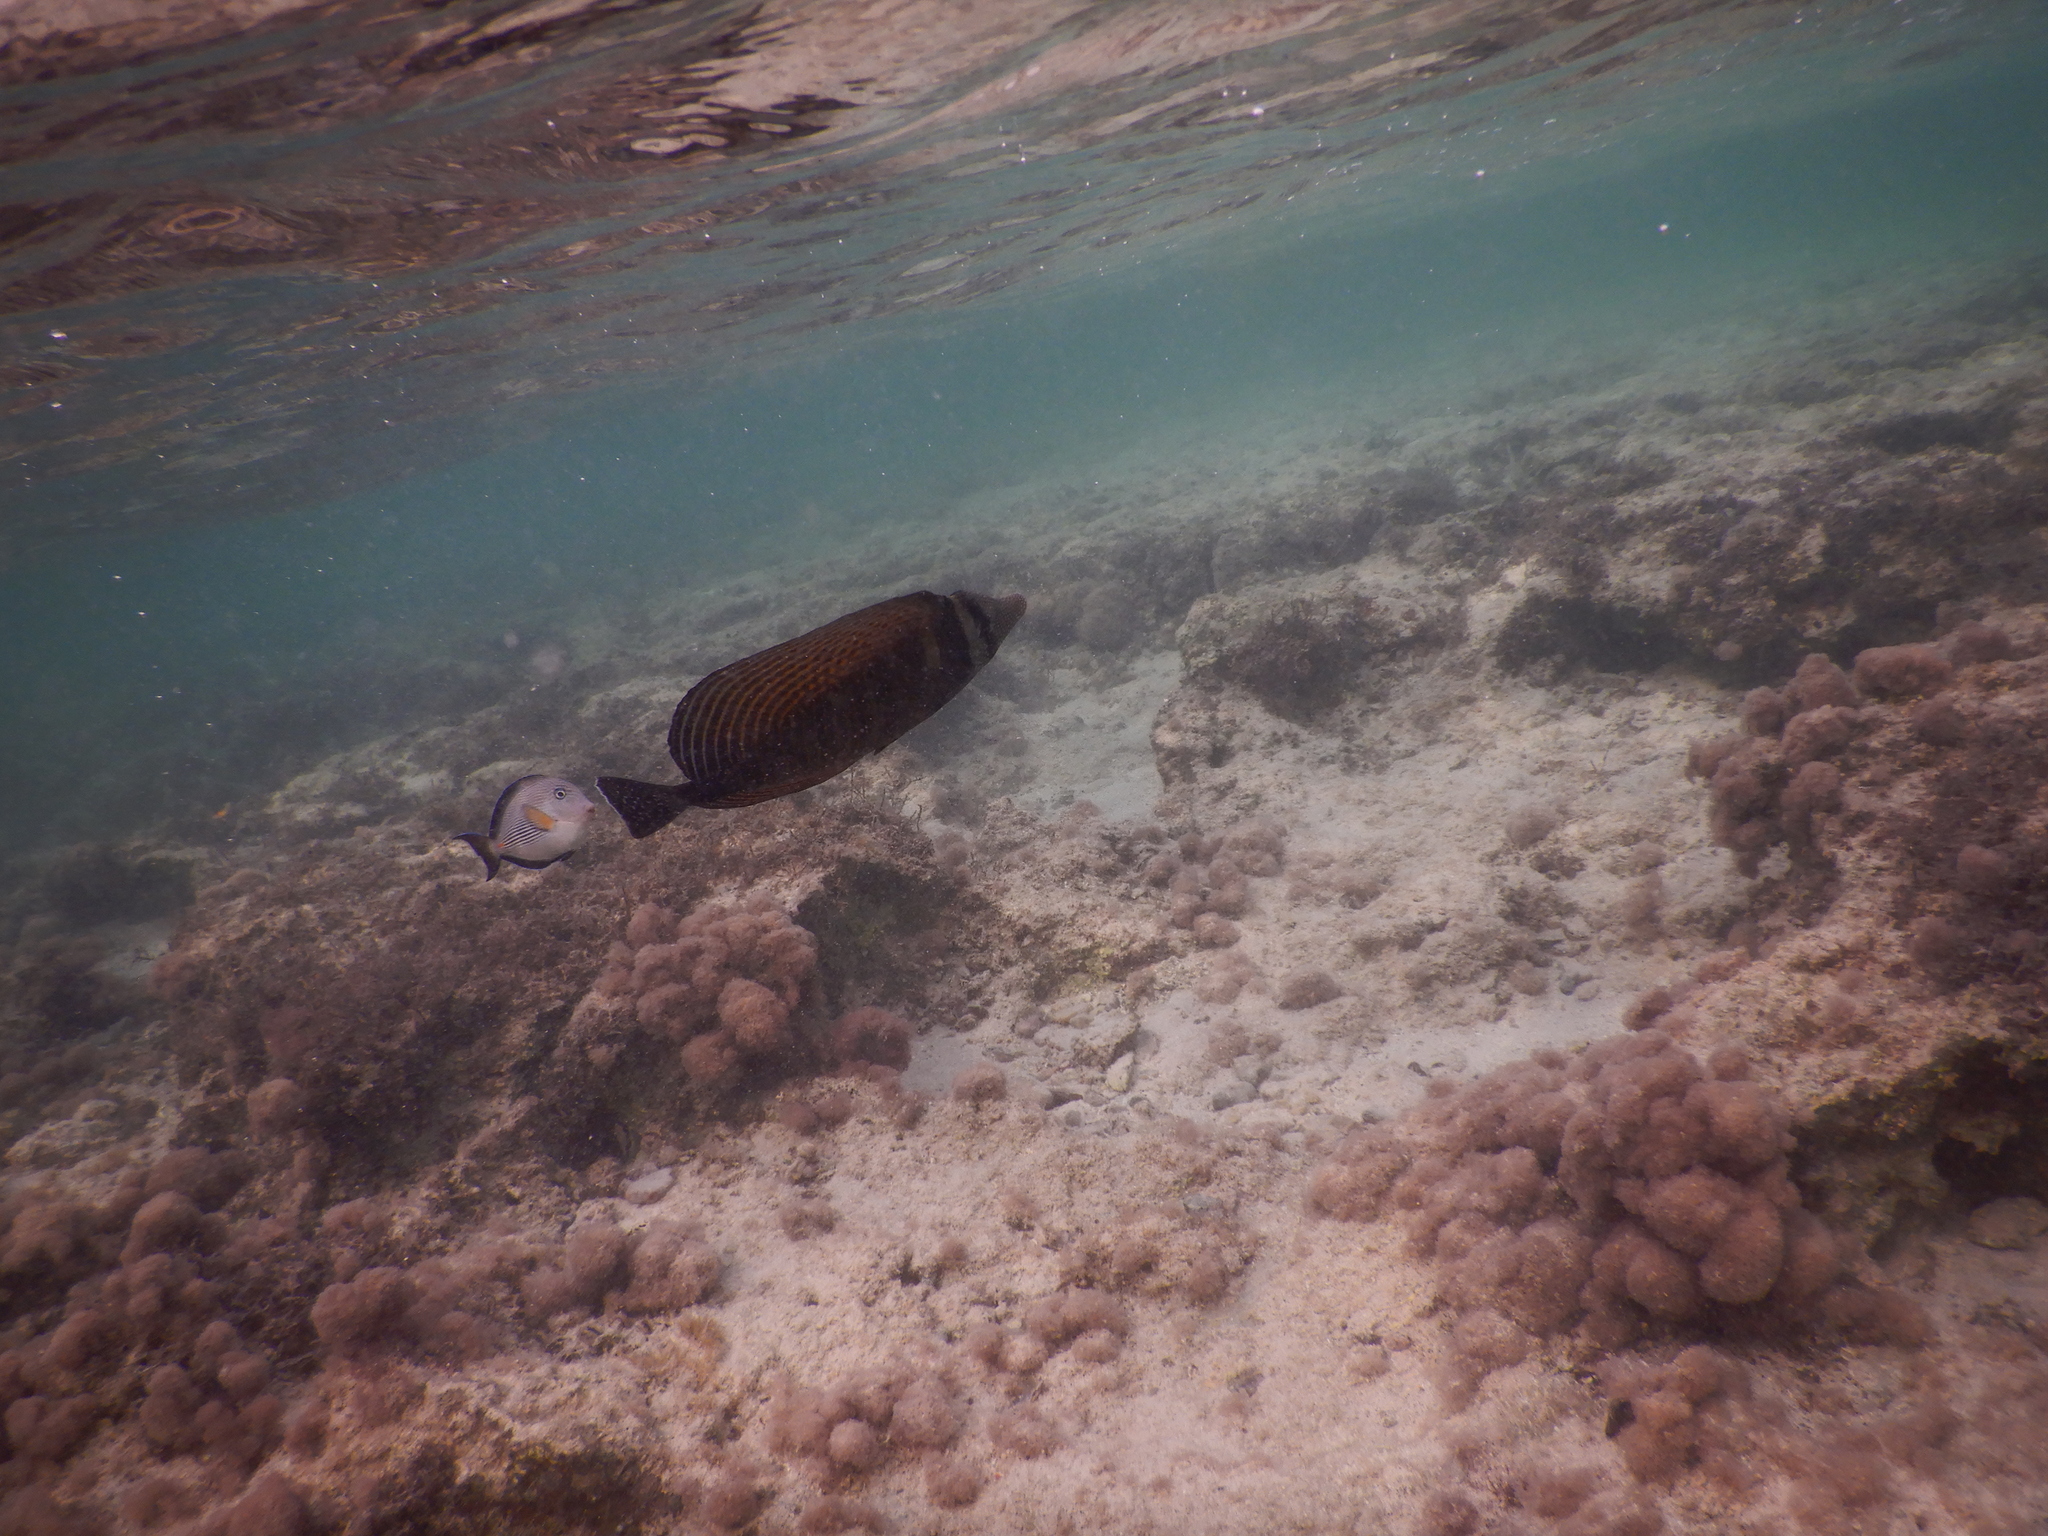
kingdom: Animalia
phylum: Chordata
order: Perciformes
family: Acanthuridae
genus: Zebrasoma
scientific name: Zebrasoma desjardinii
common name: Desjardin's sailfin tang
